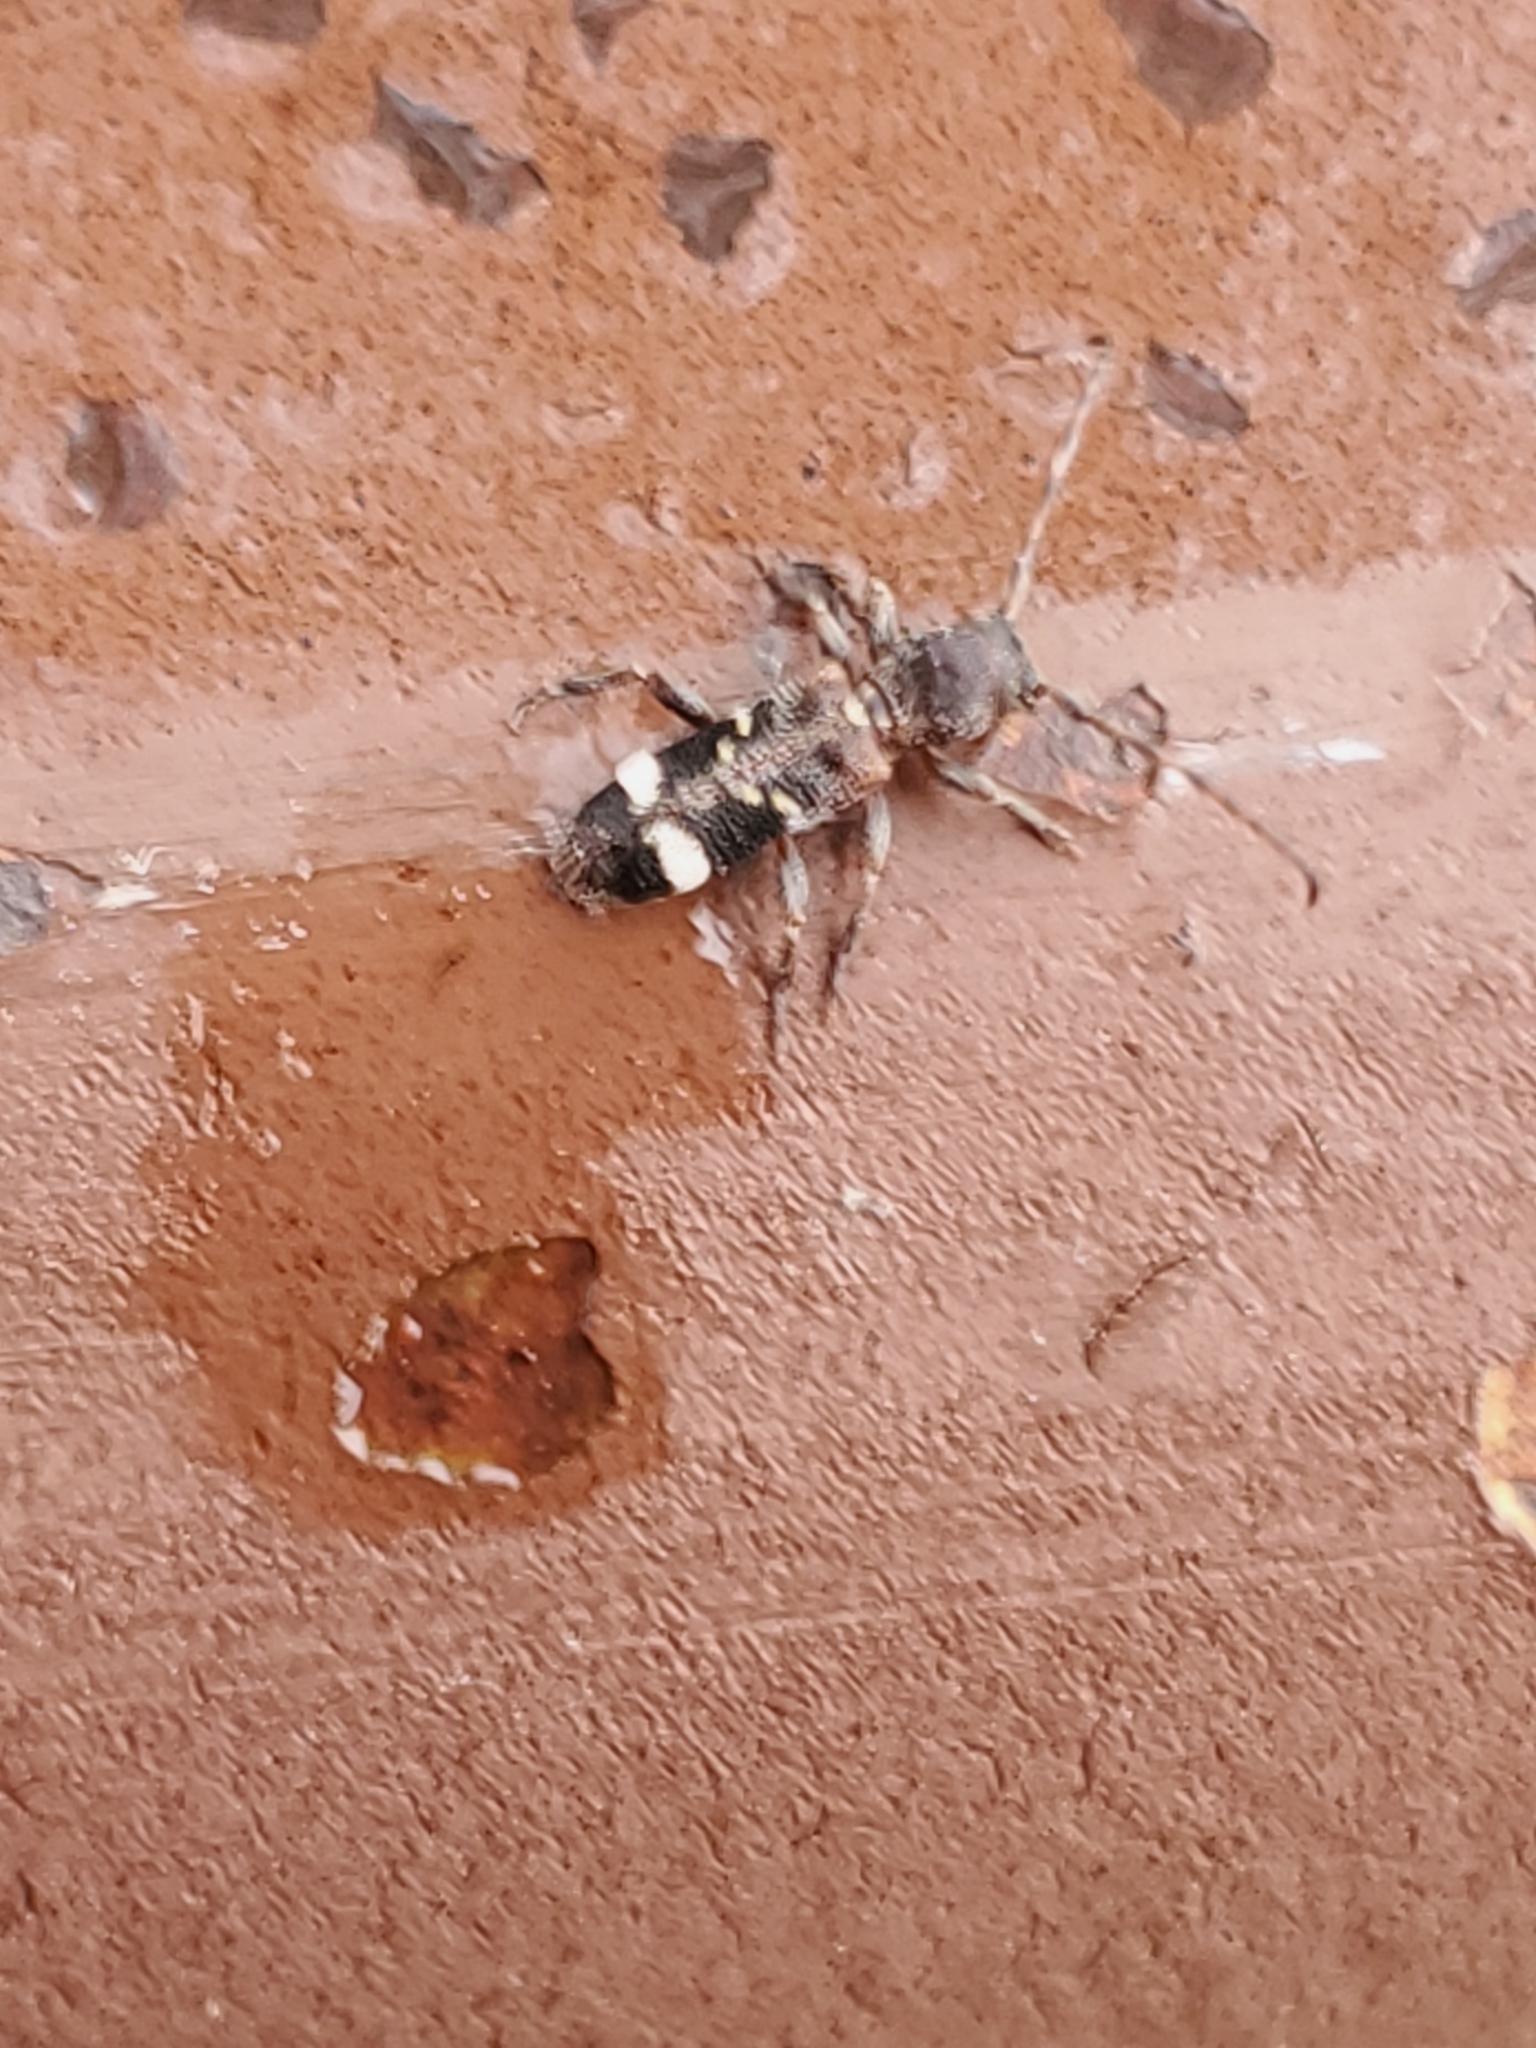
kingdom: Animalia
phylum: Arthropoda
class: Insecta
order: Coleoptera
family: Cerambycidae
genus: Psenocerus
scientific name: Psenocerus supernotatus
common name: Currant-tip borer
